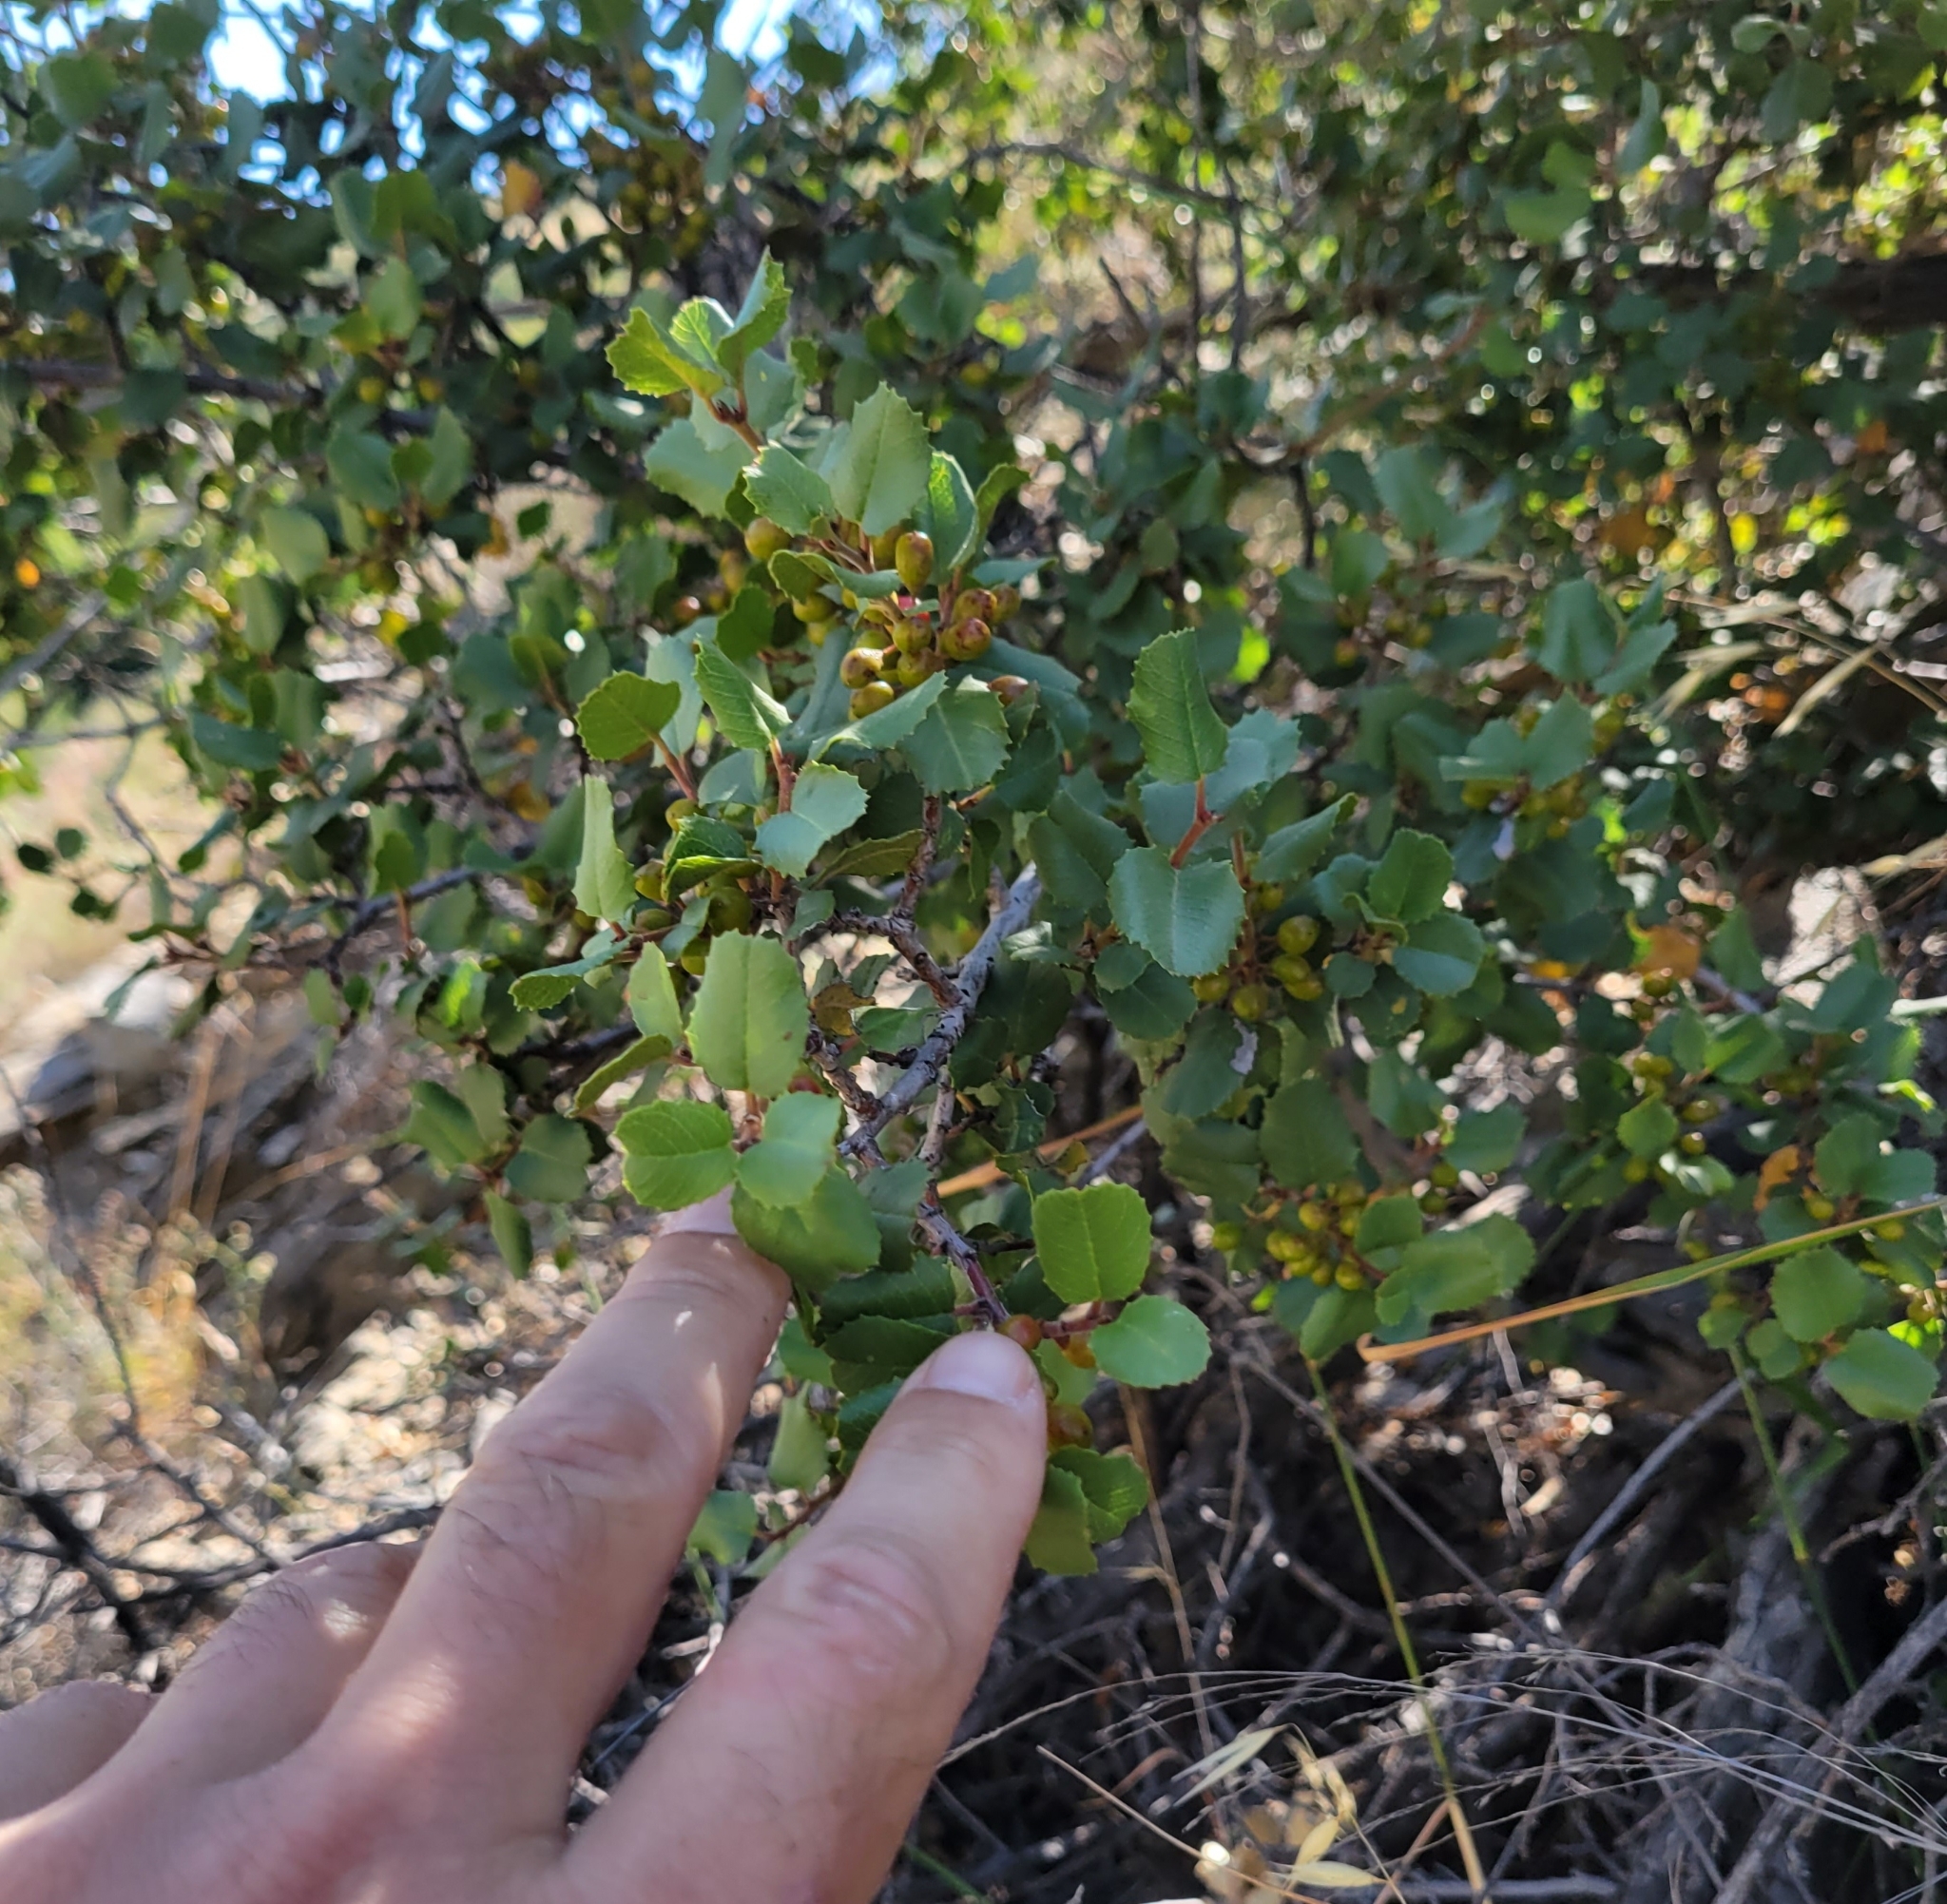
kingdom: Plantae
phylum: Tracheophyta
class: Magnoliopsida
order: Rosales
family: Rhamnaceae
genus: Endotropis
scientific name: Endotropis crocea
